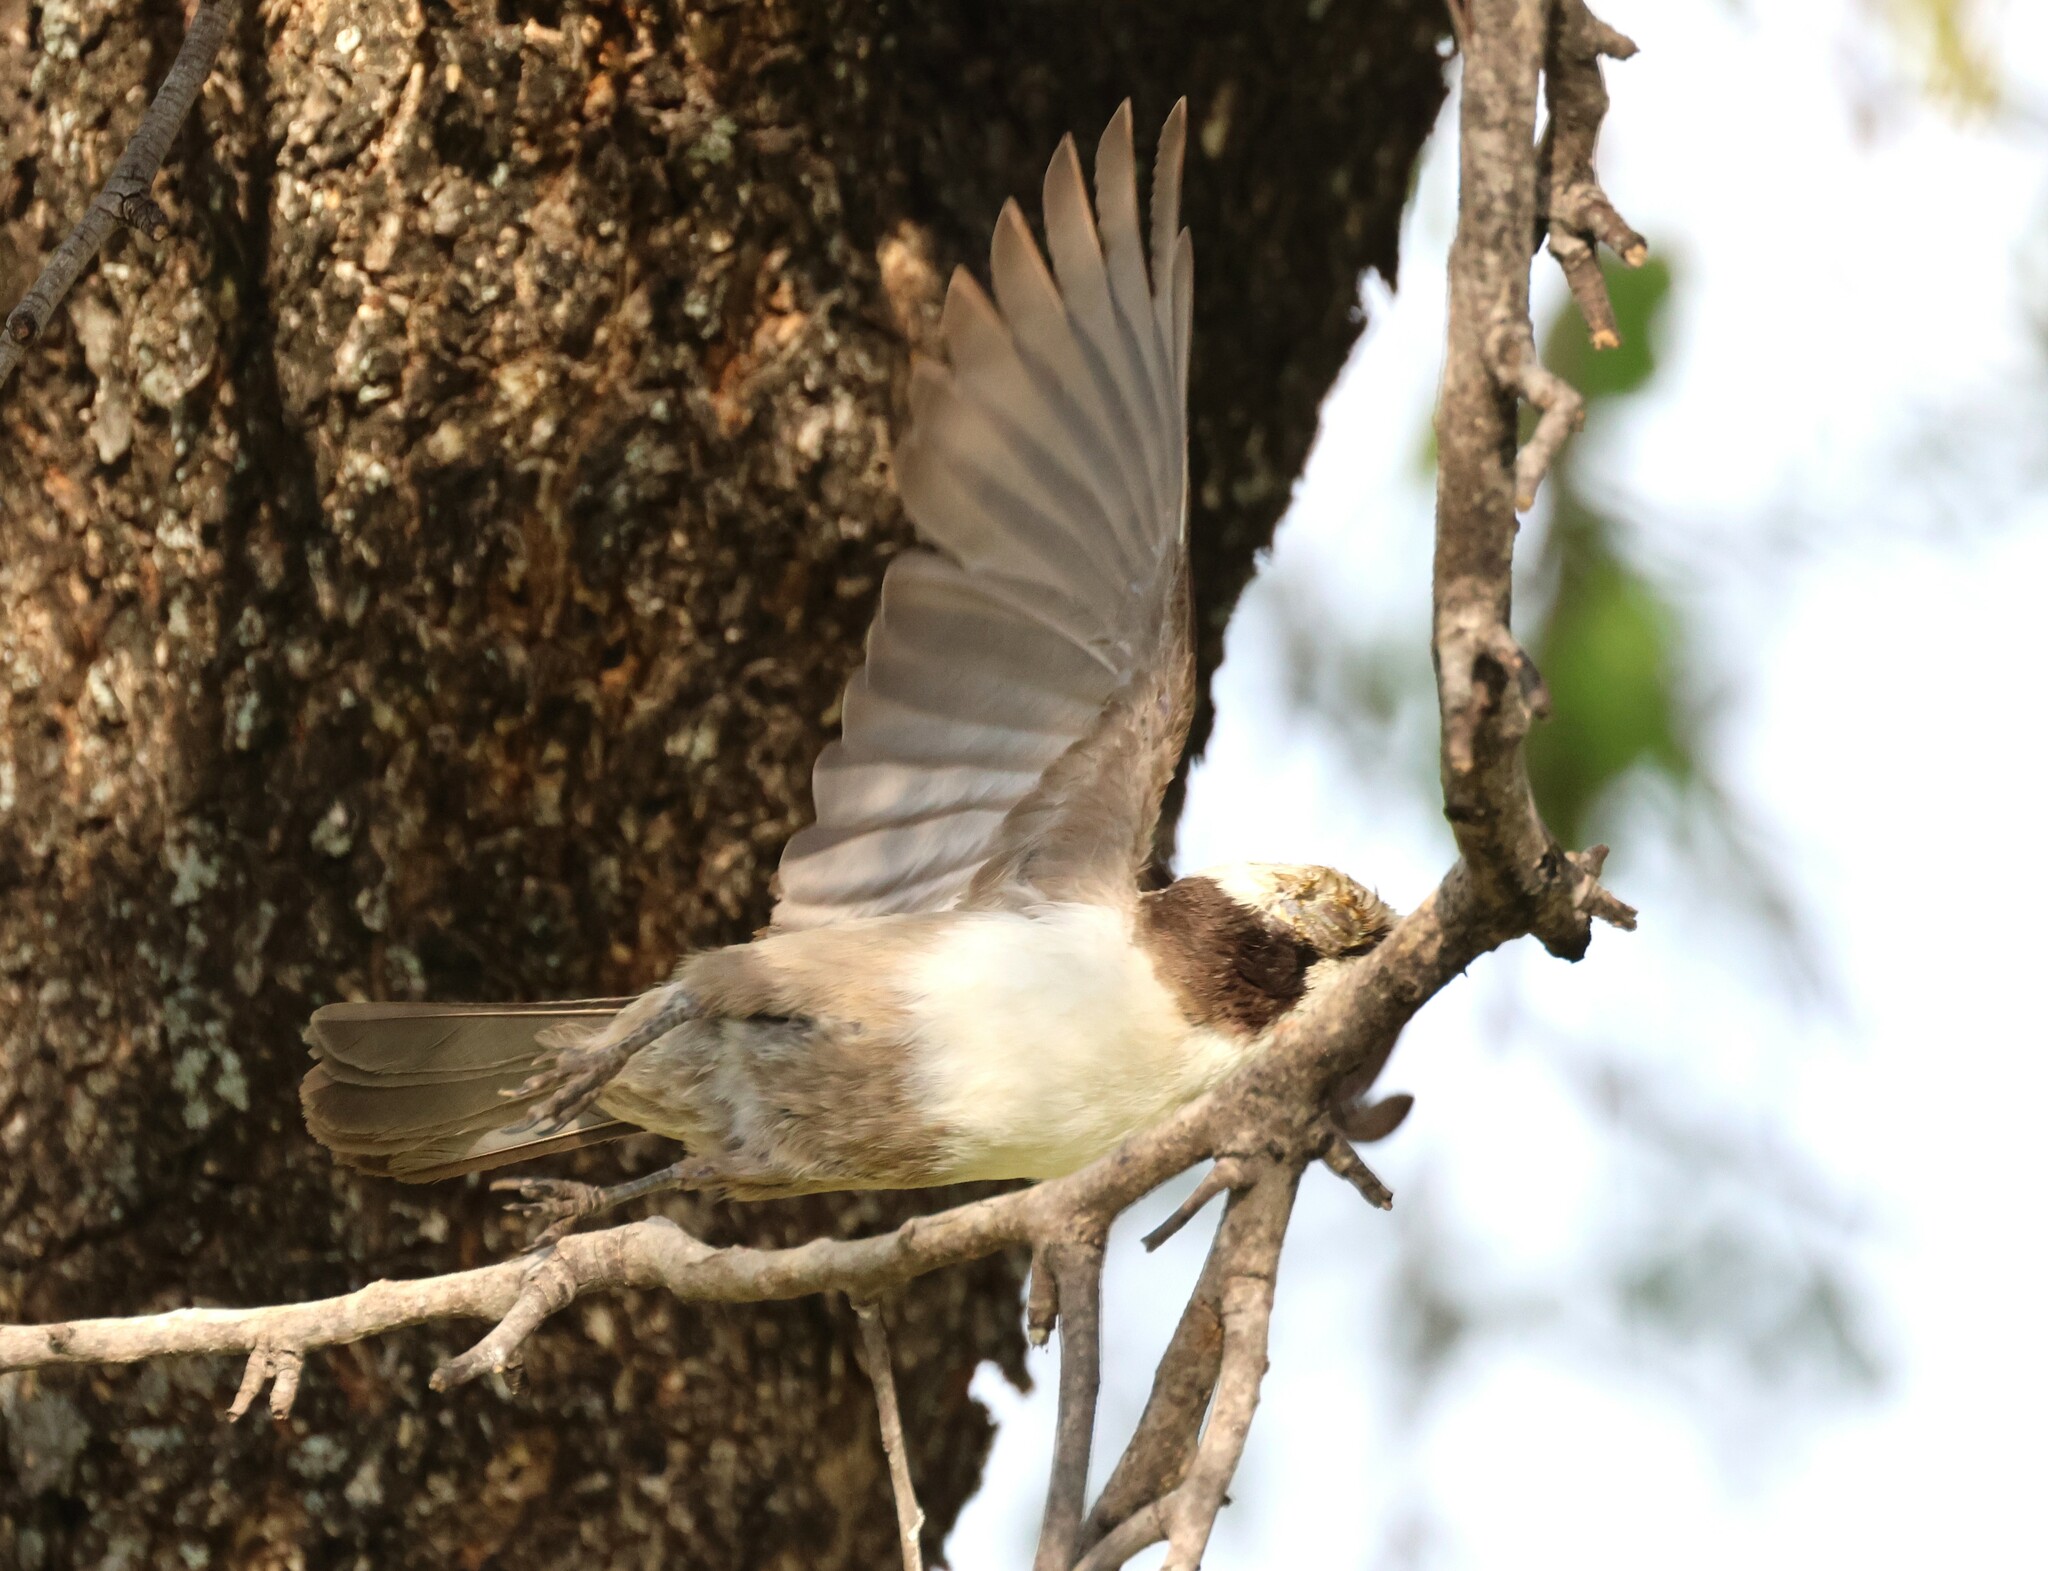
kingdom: Animalia
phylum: Chordata
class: Aves
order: Passeriformes
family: Laniidae
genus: Eurocephalus
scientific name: Eurocephalus anguitimens
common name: Southern white-crowned shrike
